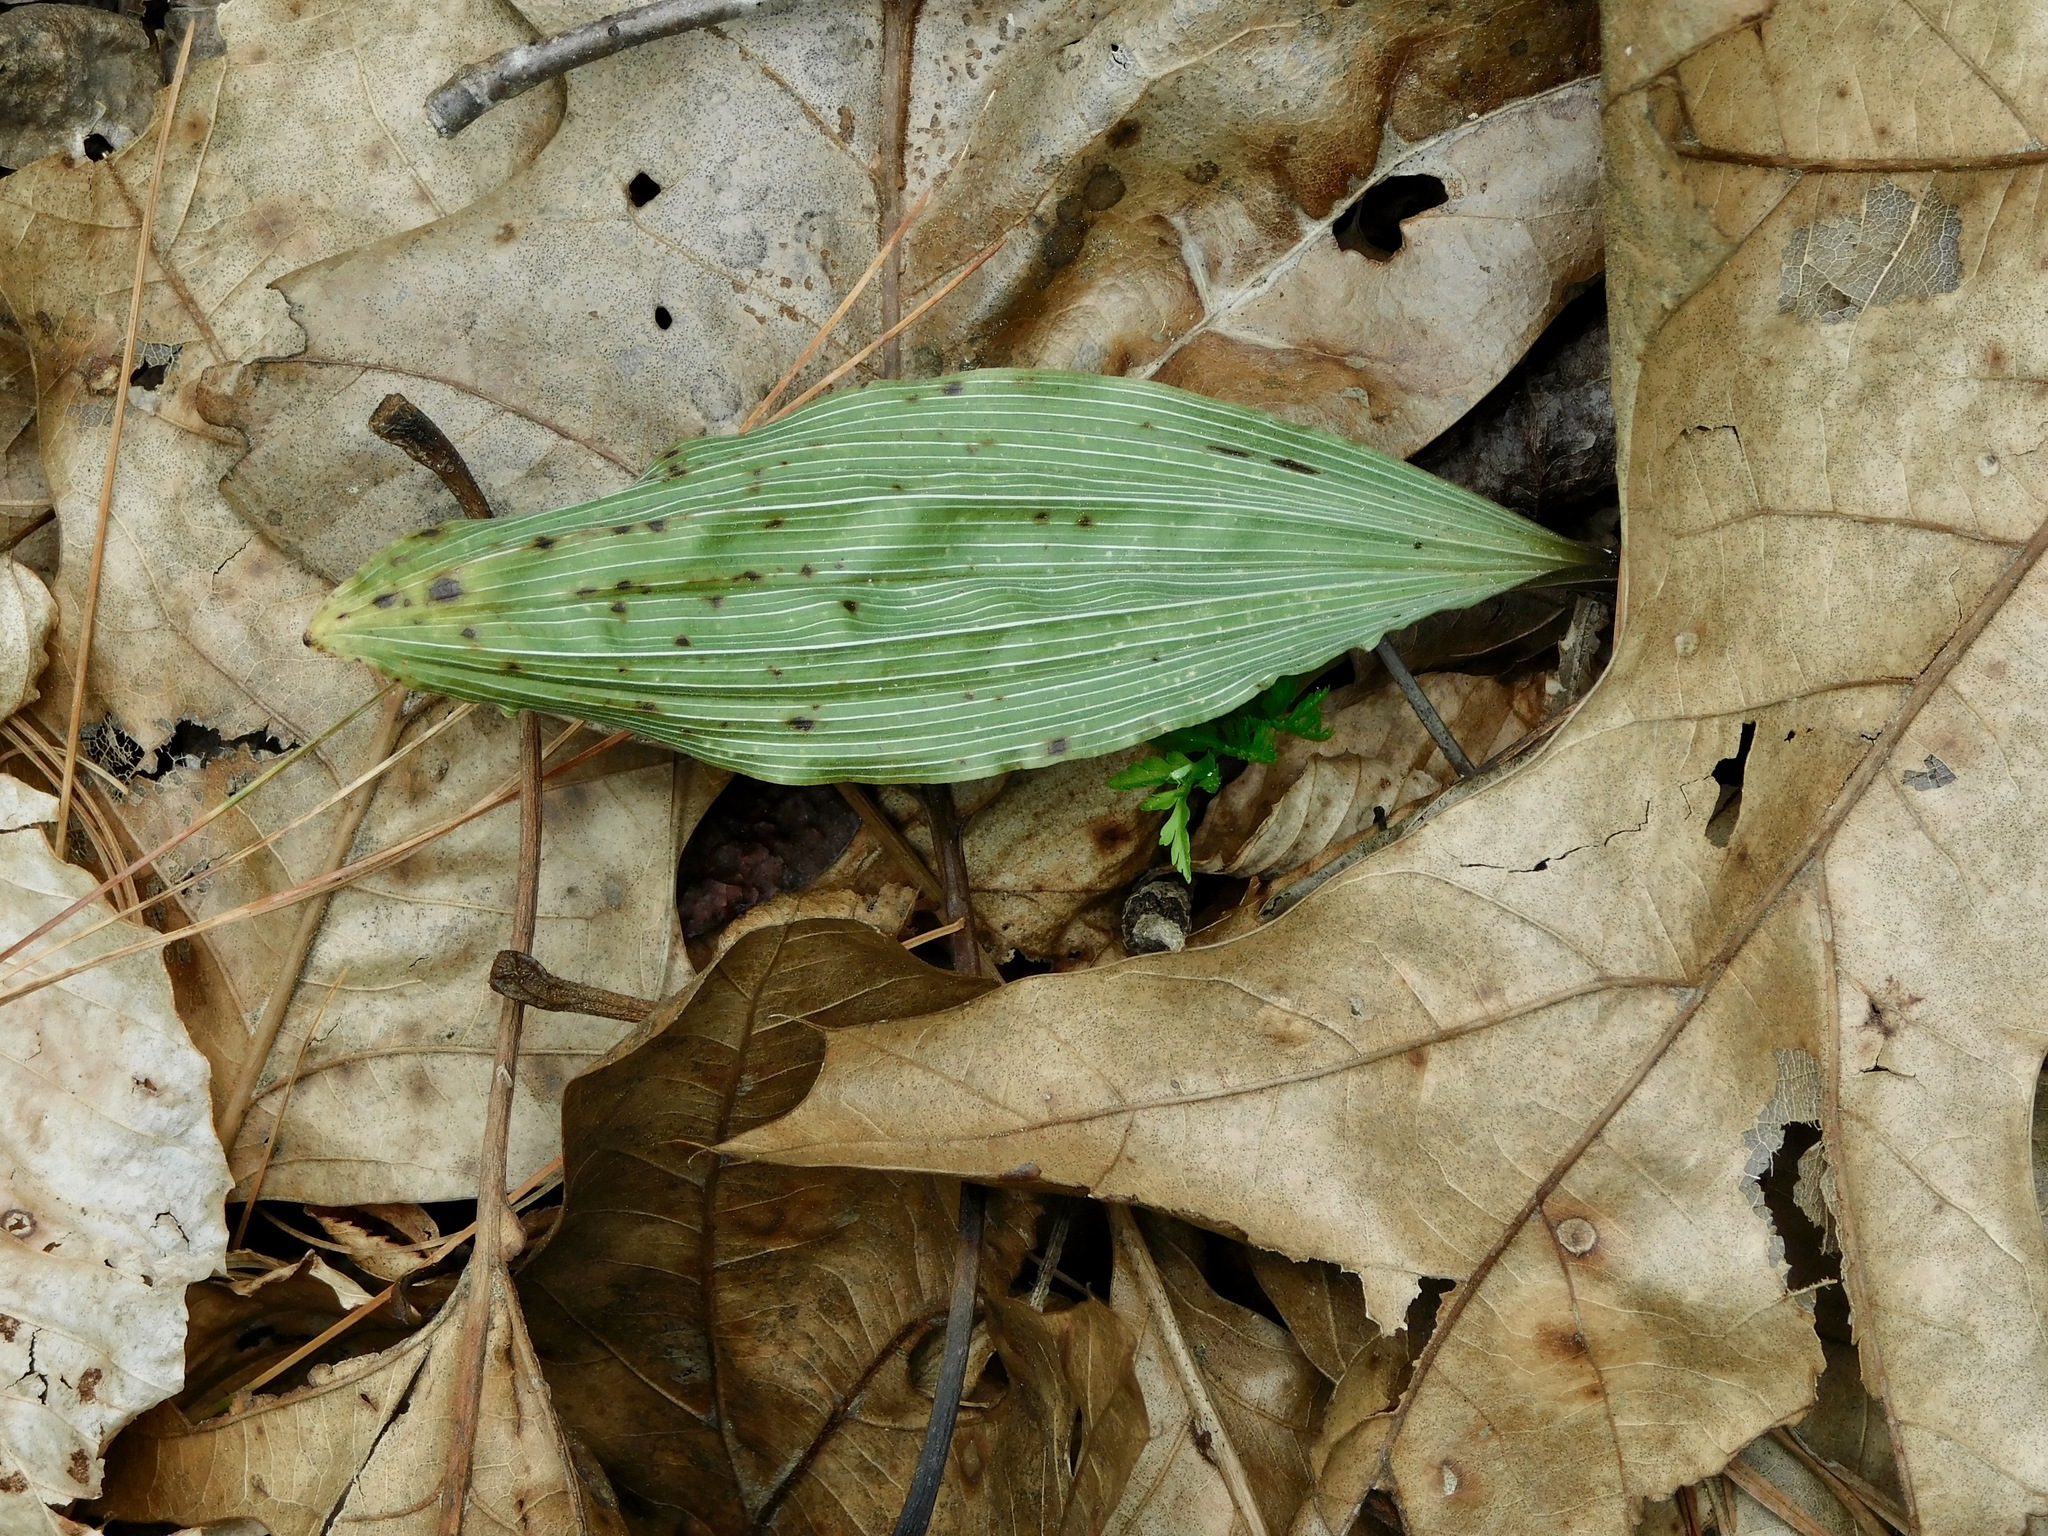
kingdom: Plantae
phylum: Tracheophyta
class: Liliopsida
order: Asparagales
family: Orchidaceae
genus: Aplectrum
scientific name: Aplectrum hyemale
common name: Adam-and-eve
